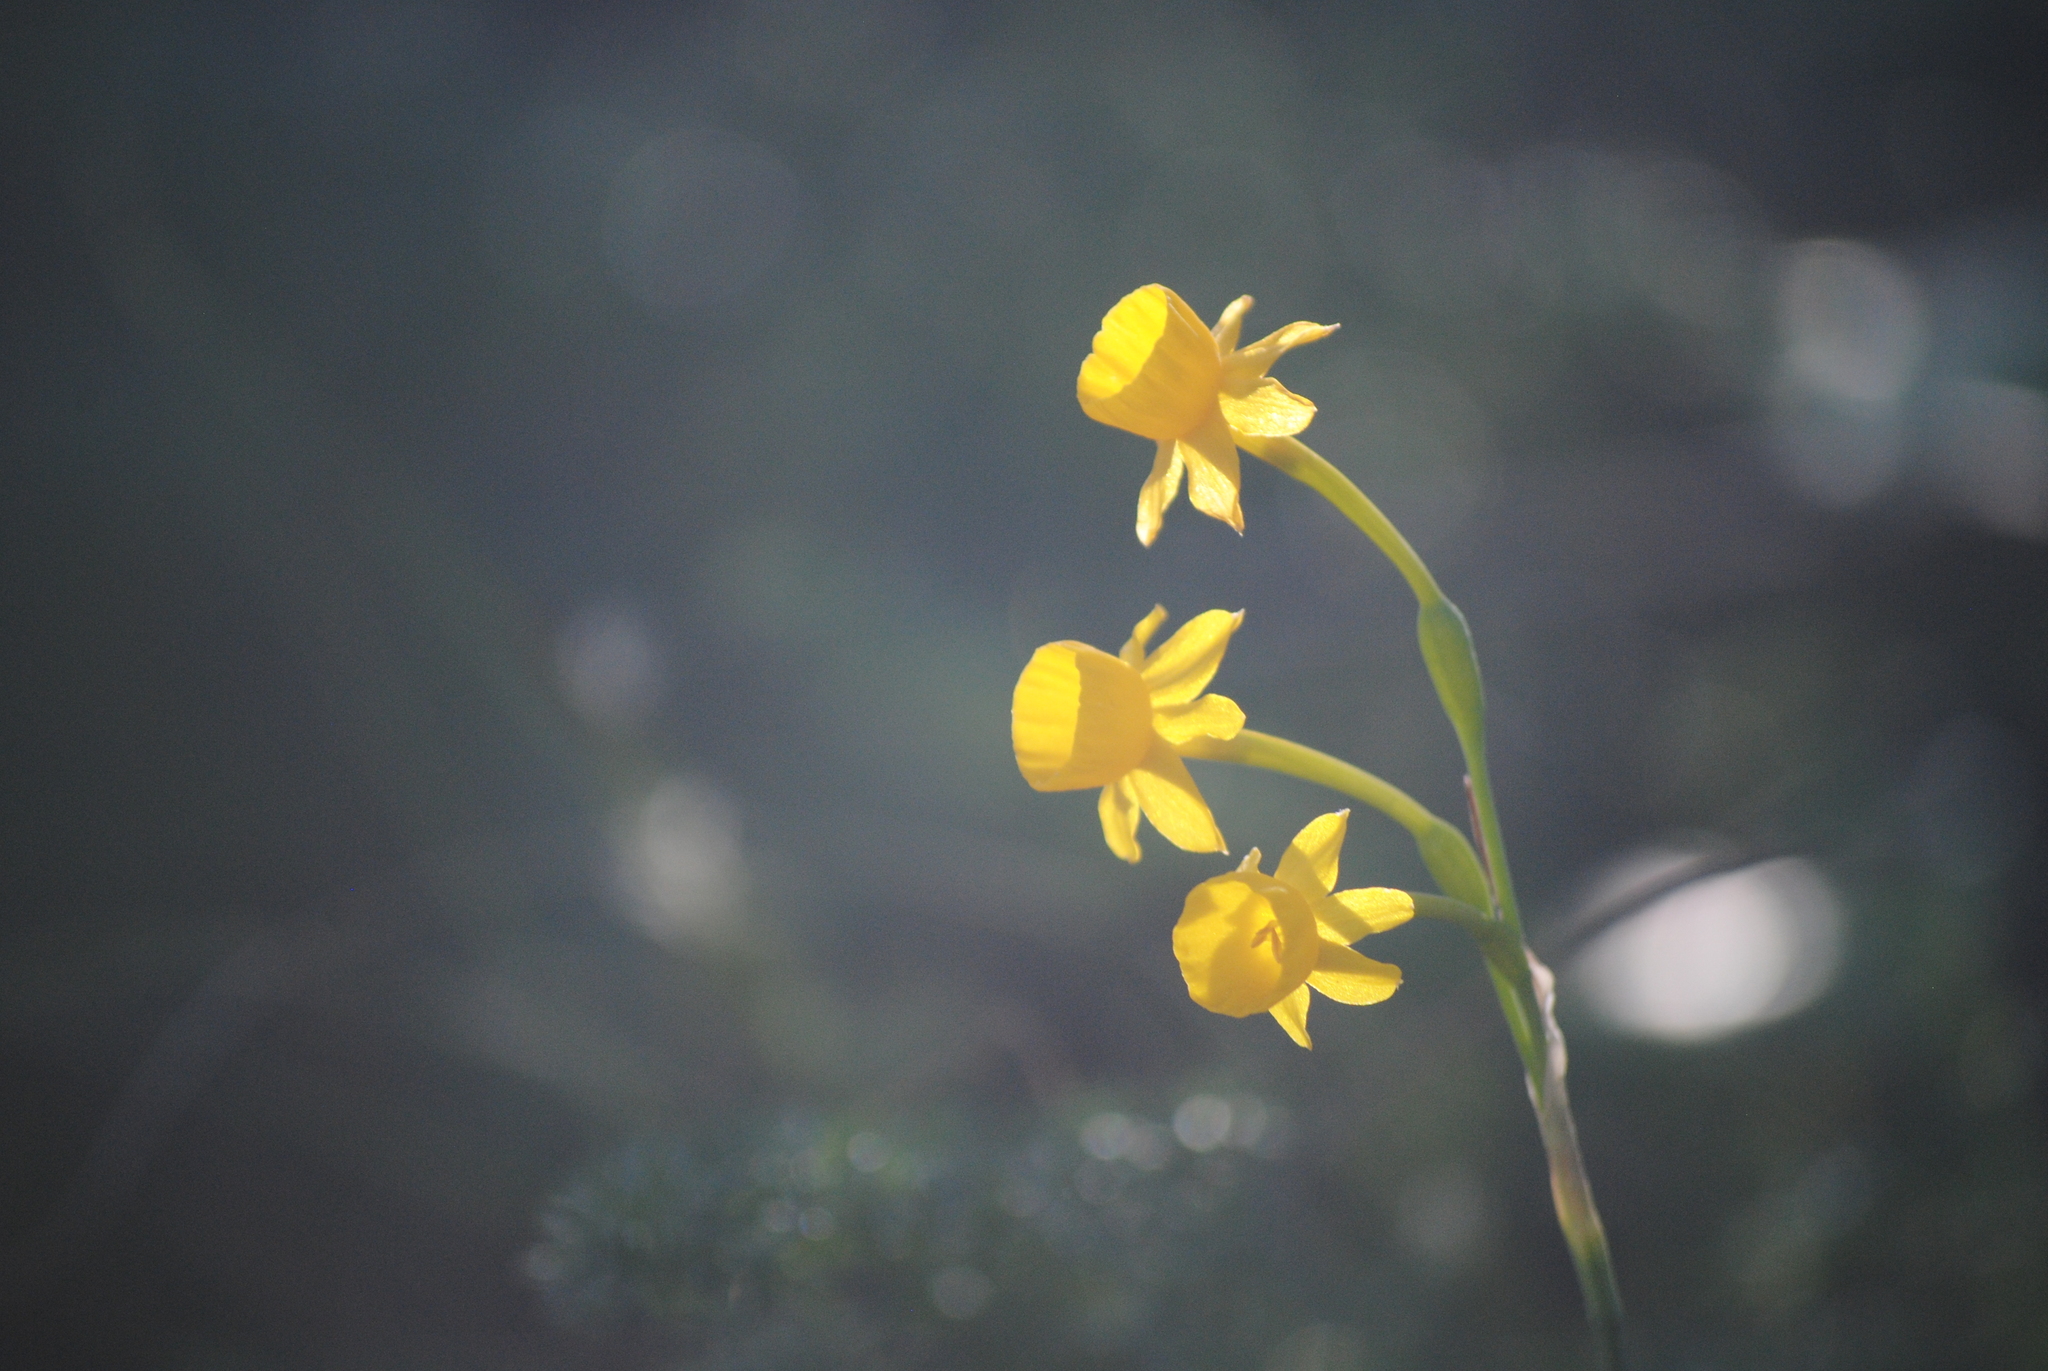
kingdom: Plantae
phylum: Tracheophyta
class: Liliopsida
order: Asparagales
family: Amaryllidaceae
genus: Narcissus
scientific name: Narcissus gaditanus
